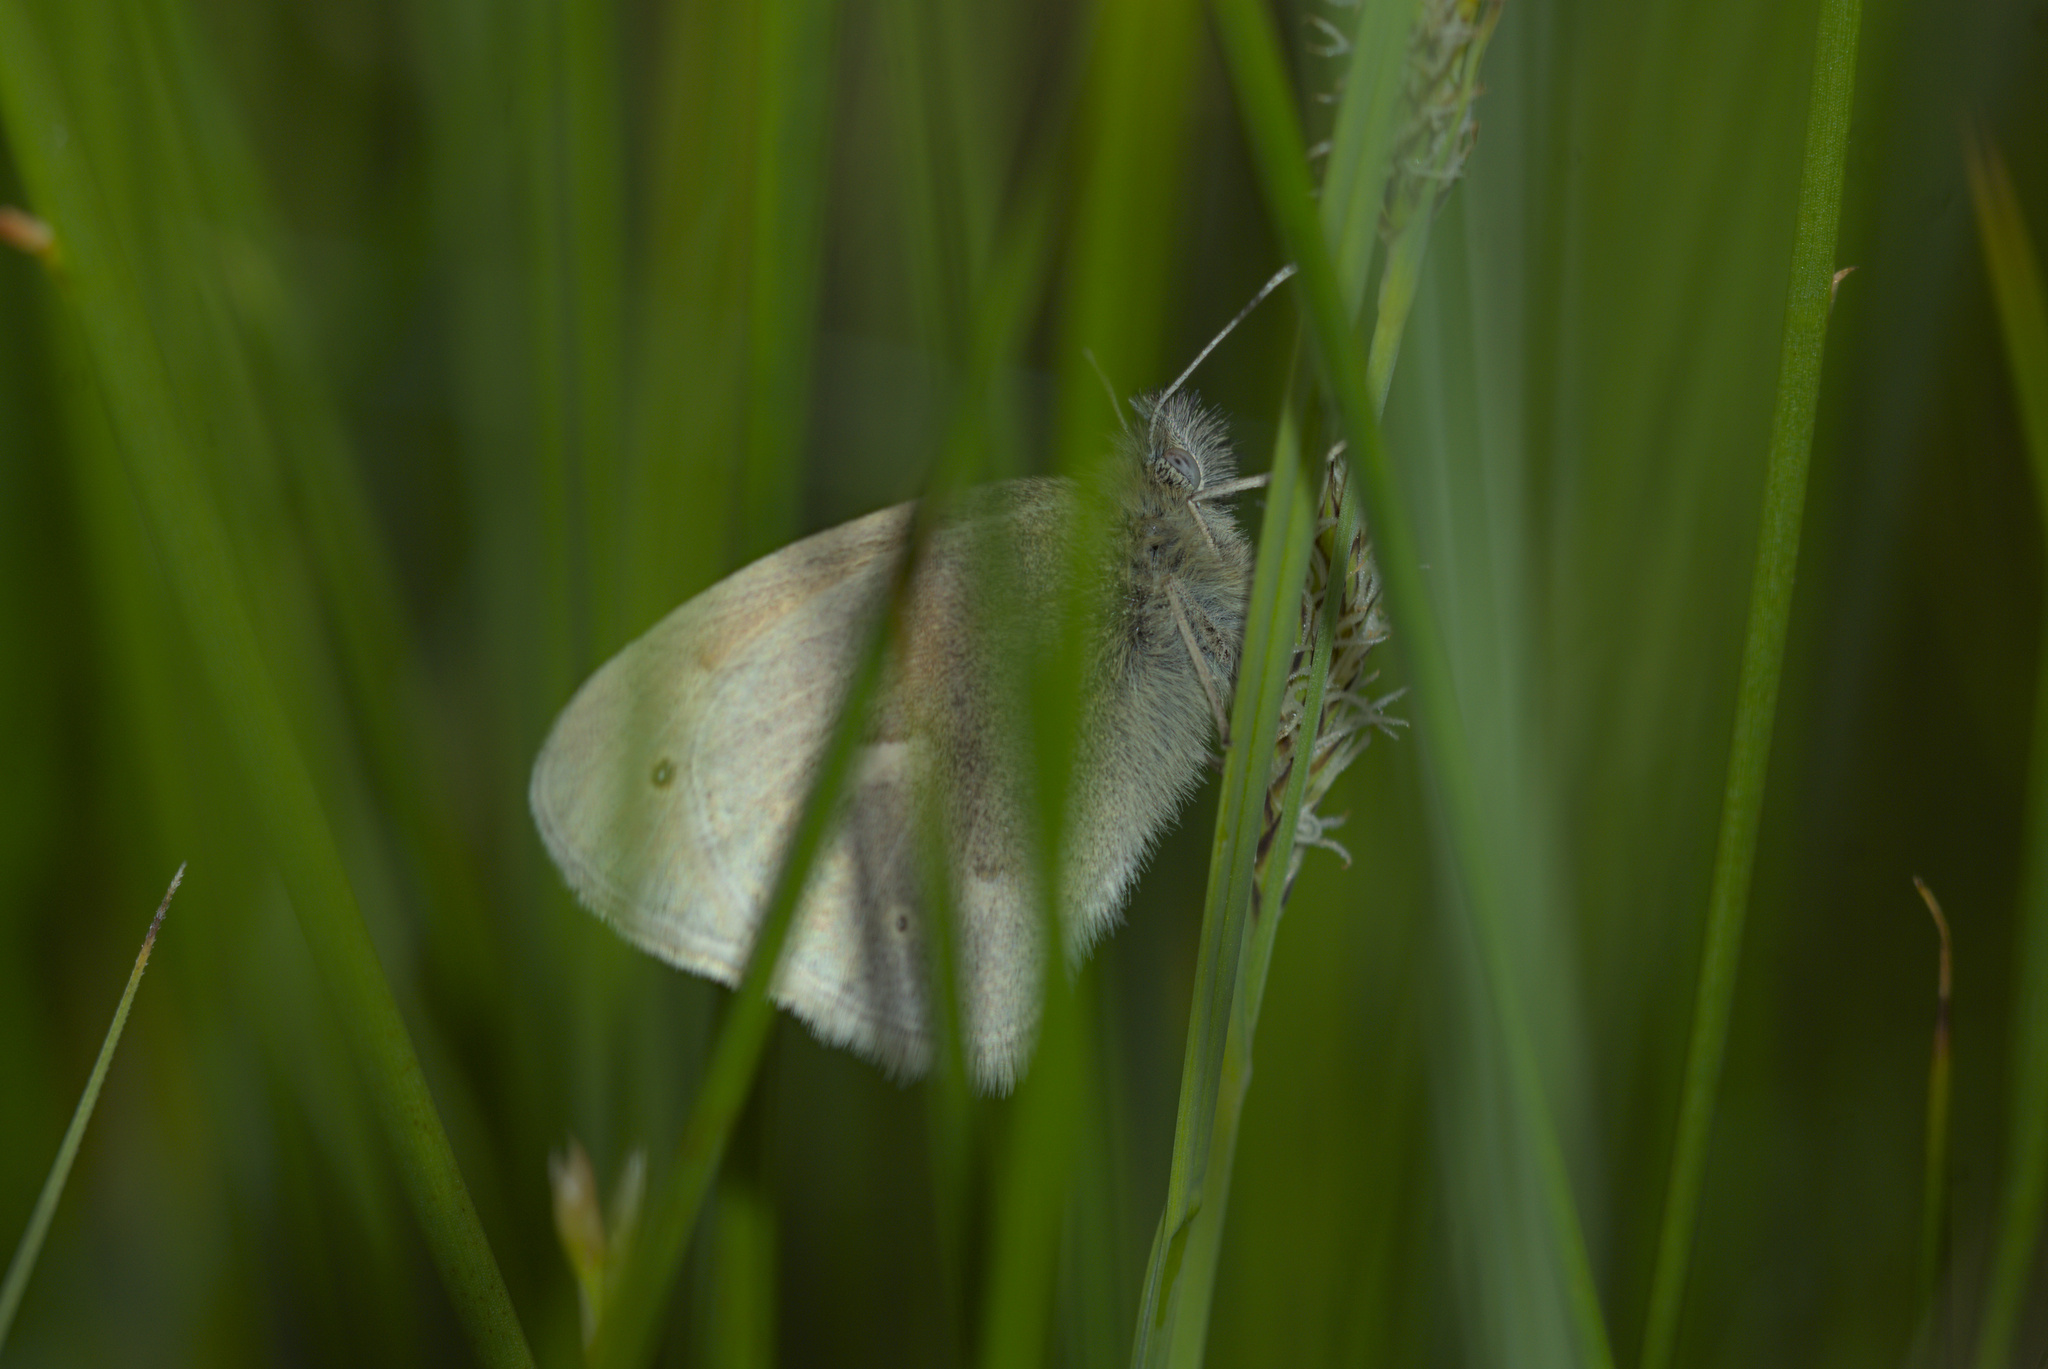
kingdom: Animalia
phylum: Arthropoda
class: Insecta
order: Lepidoptera
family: Nymphalidae
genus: Coenonympha
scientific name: Coenonympha california
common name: Common ringlet
